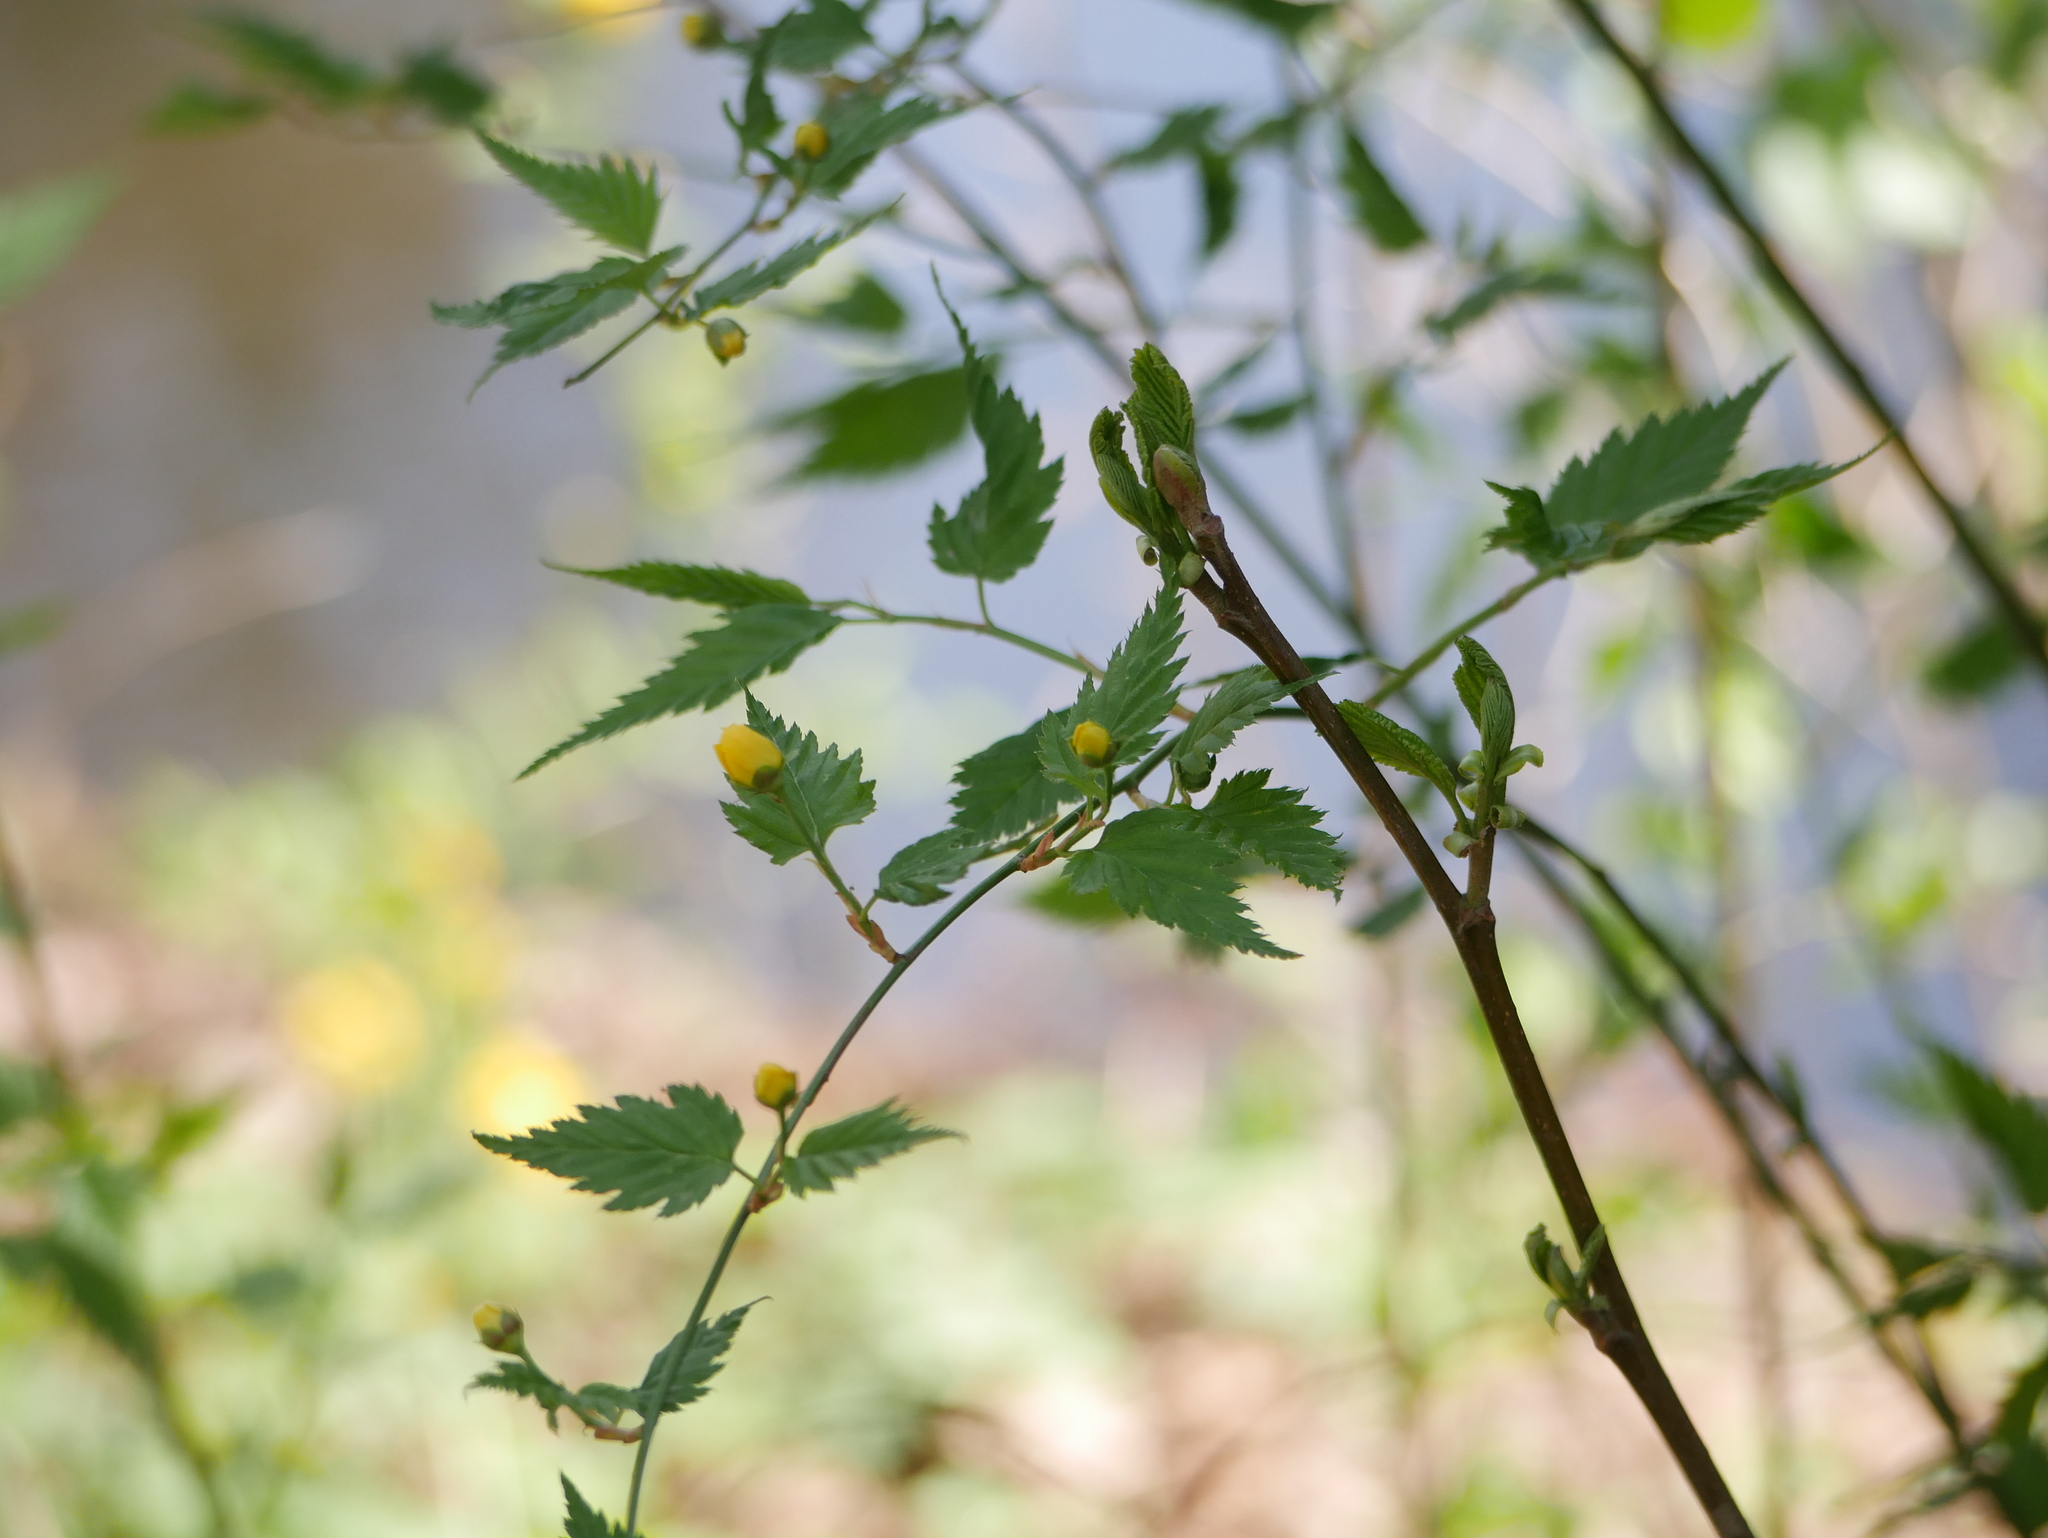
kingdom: Plantae
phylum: Tracheophyta
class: Magnoliopsida
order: Rosales
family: Rosaceae
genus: Kerria
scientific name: Kerria japonica
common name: Japanese kerria
